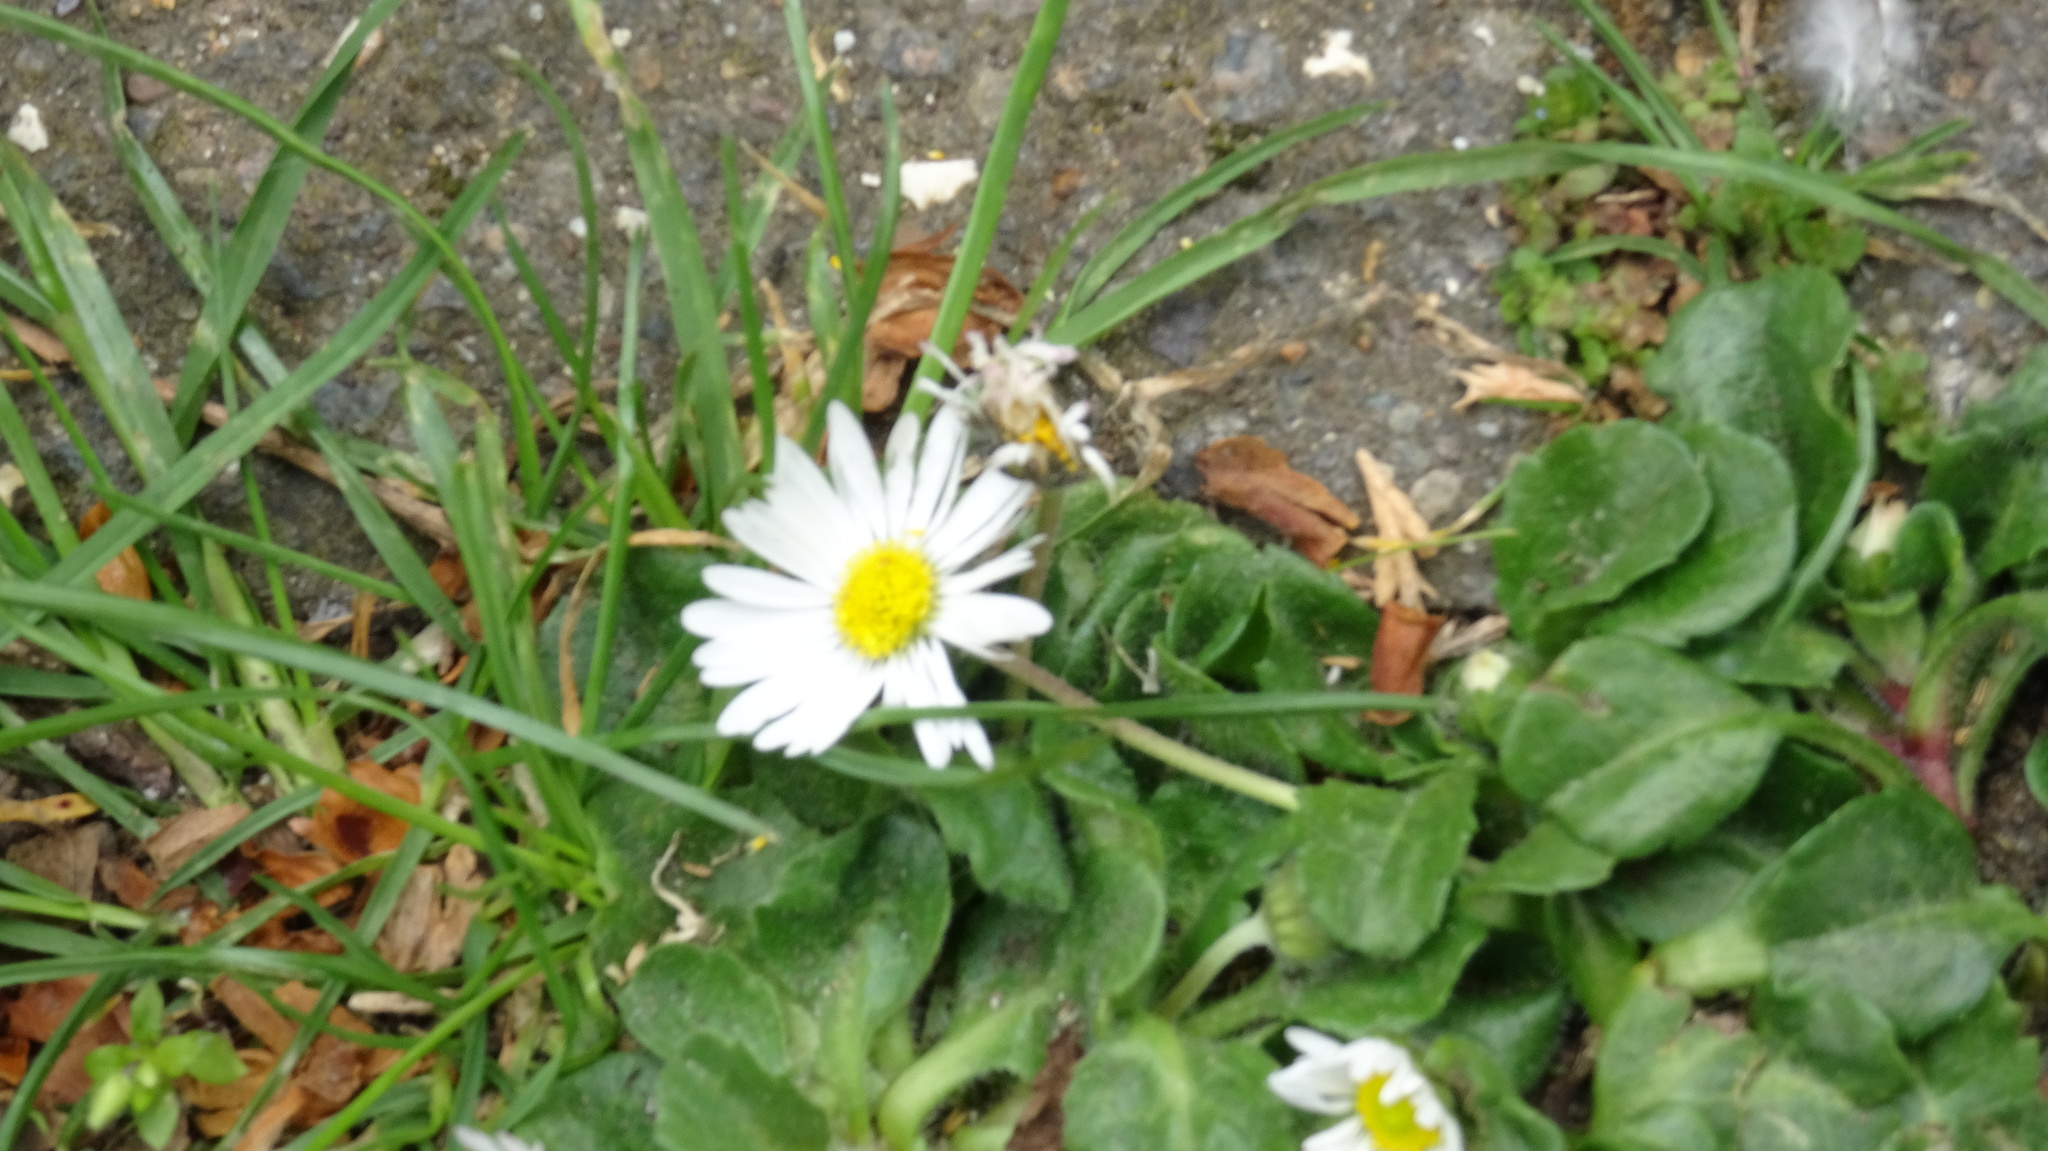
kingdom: Plantae
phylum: Tracheophyta
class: Magnoliopsida
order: Asterales
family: Asteraceae
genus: Bellis
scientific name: Bellis perennis
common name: Lawndaisy
